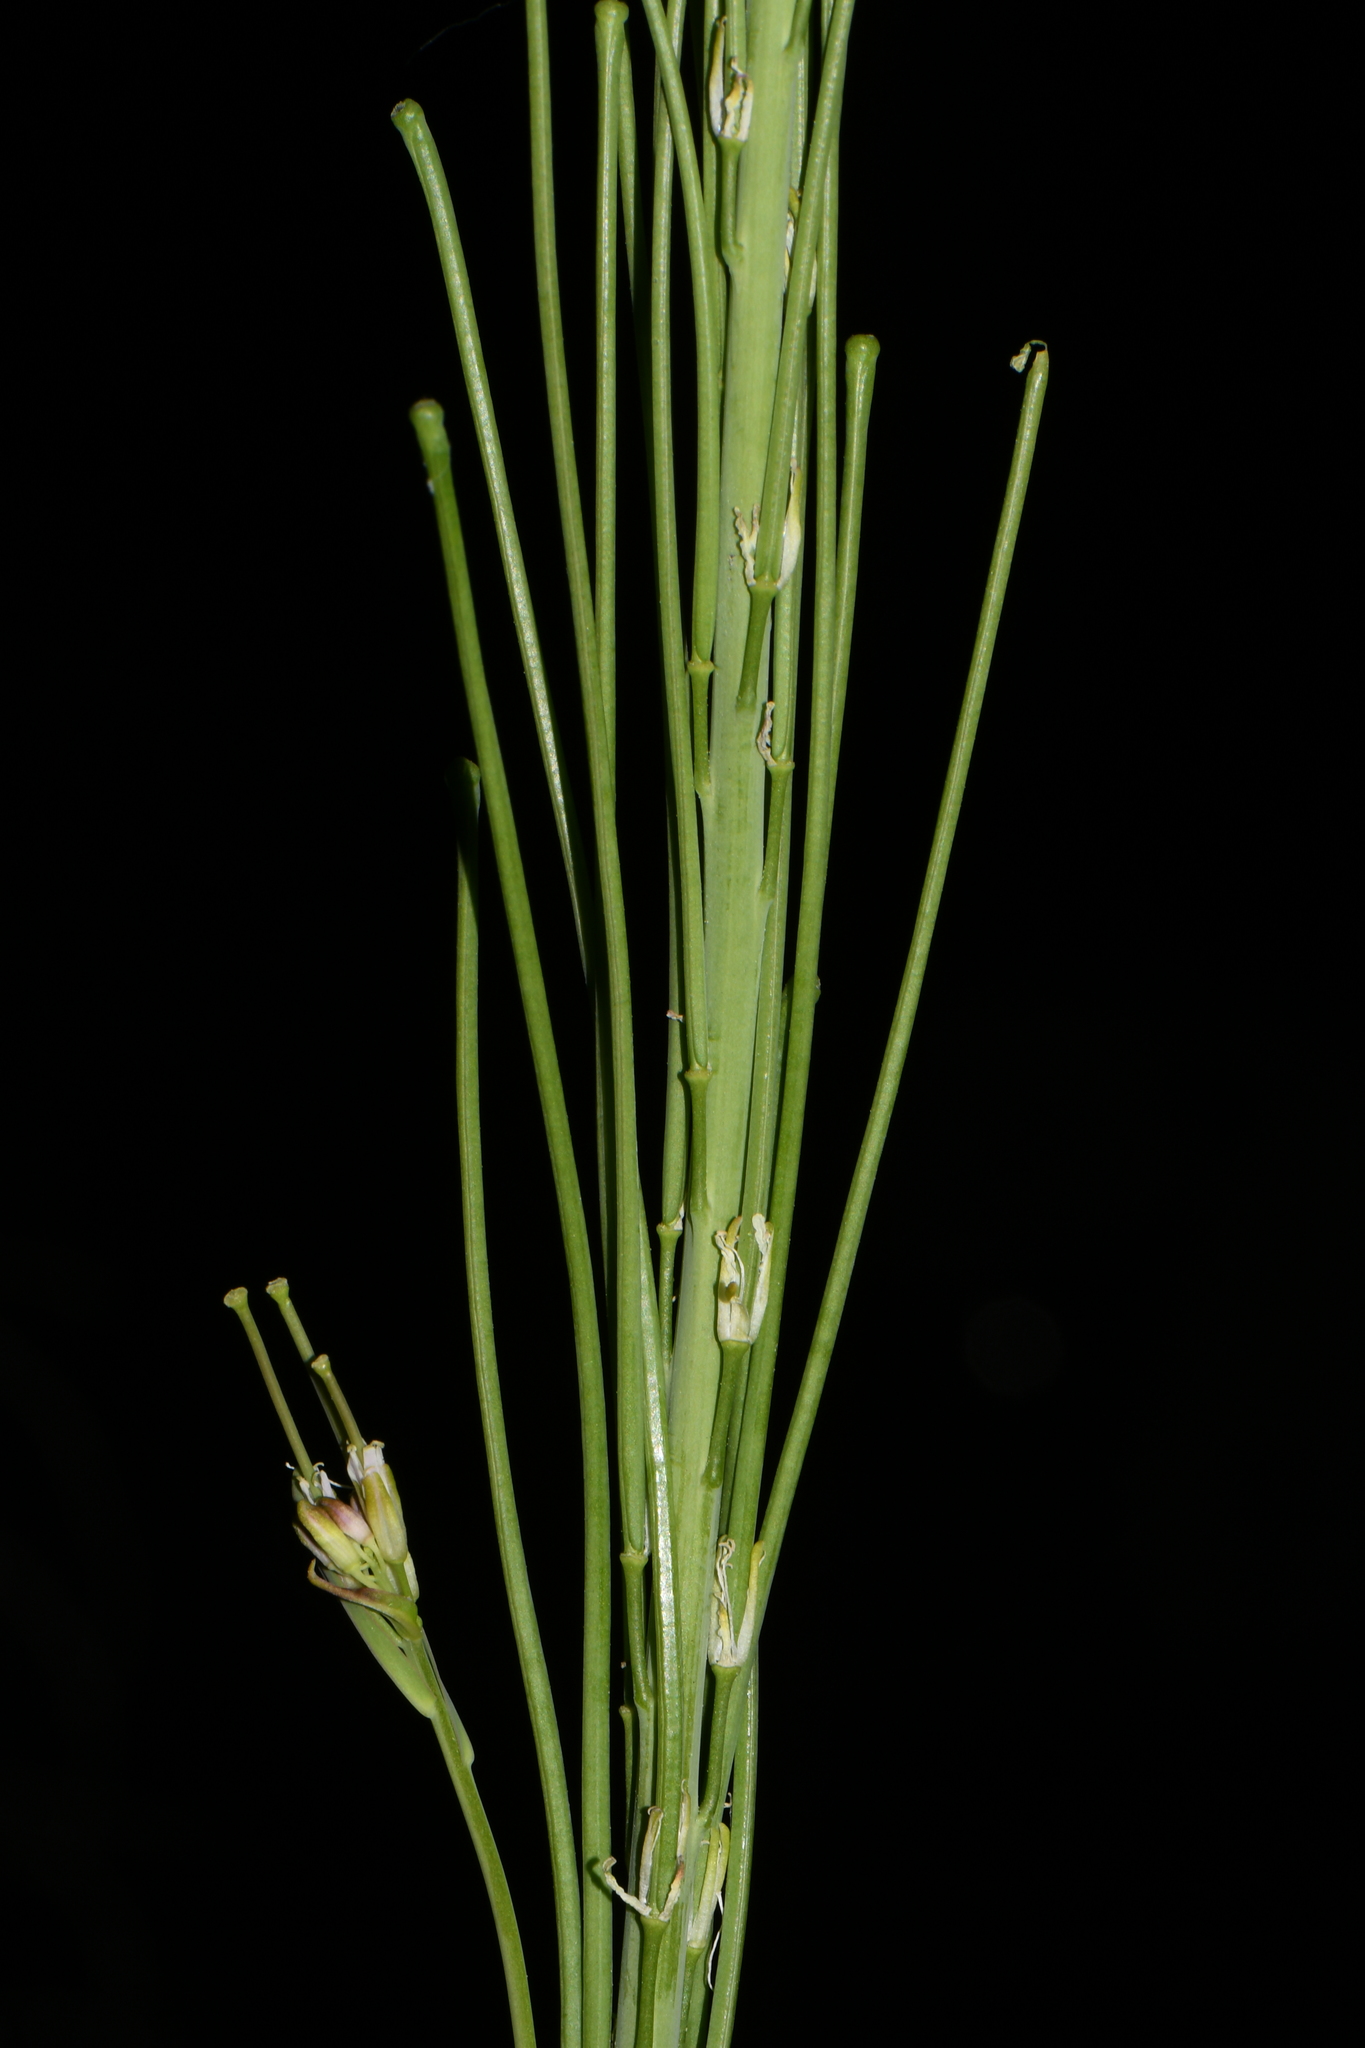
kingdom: Plantae
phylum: Tracheophyta
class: Magnoliopsida
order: Brassicales
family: Brassicaceae
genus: Turritis
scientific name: Turritis glabra
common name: Tower rockcress
